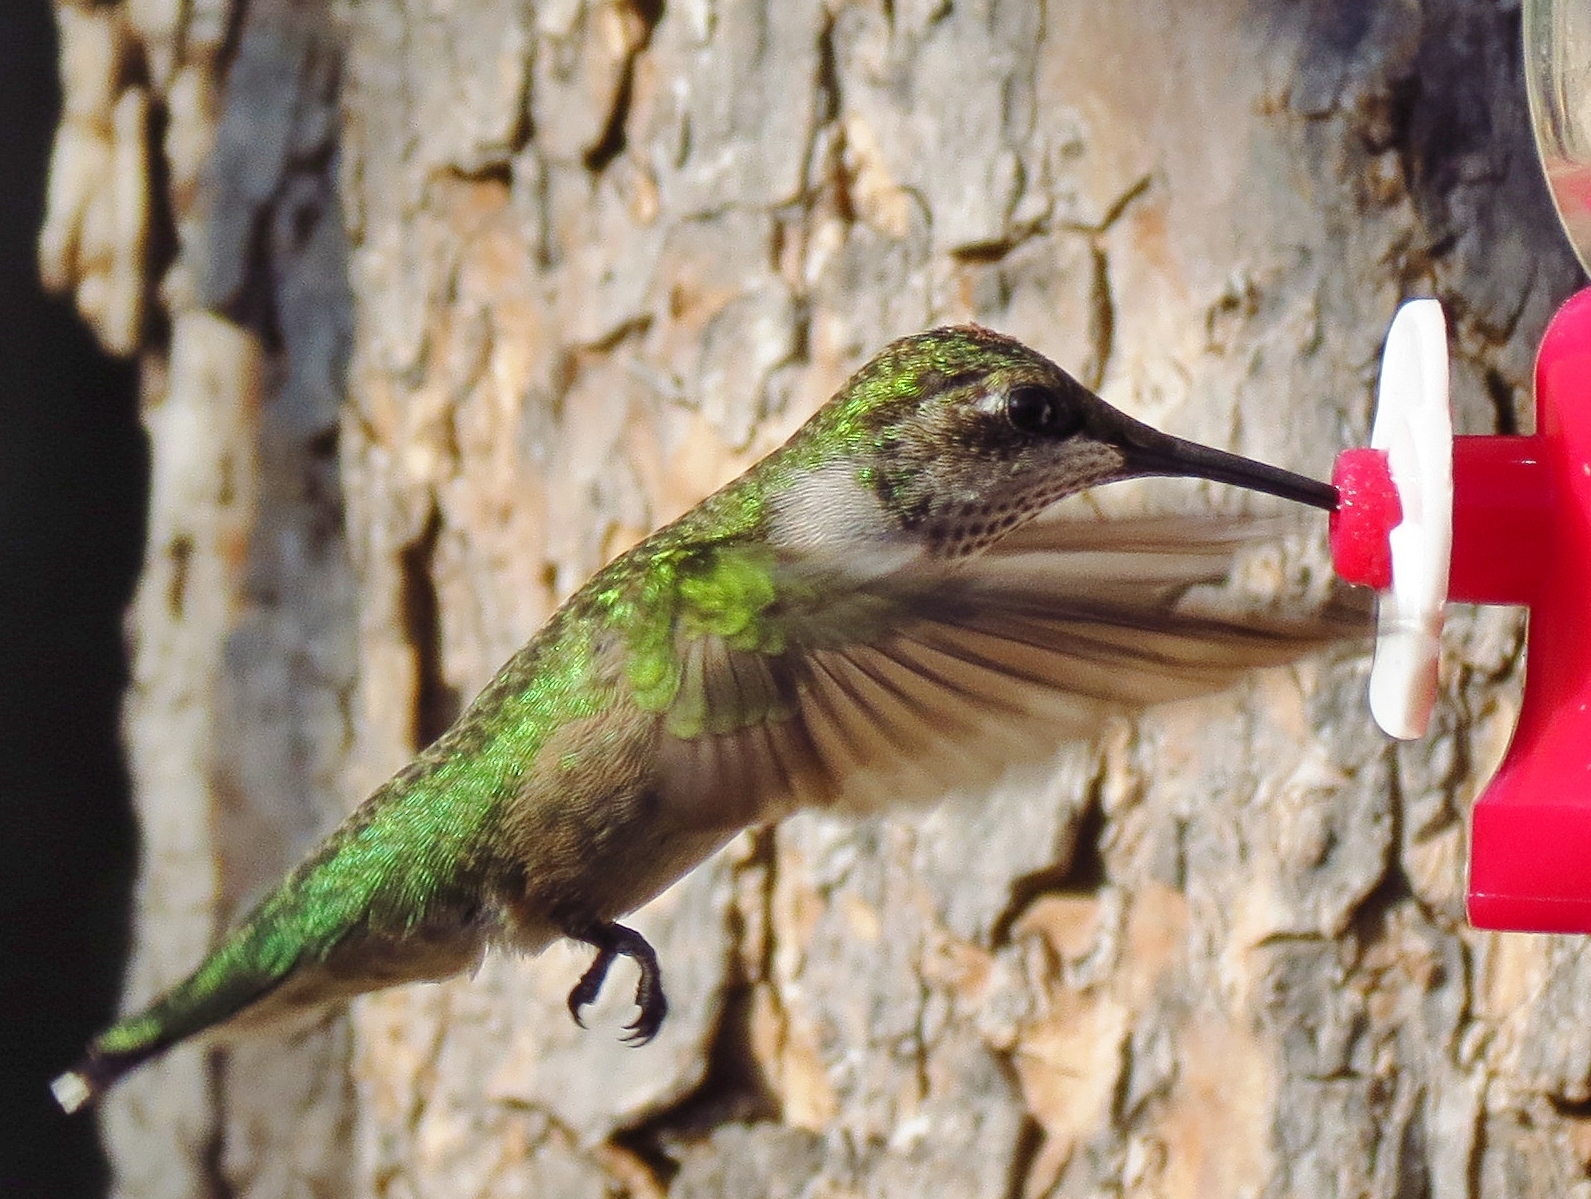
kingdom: Animalia
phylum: Chordata
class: Aves
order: Apodiformes
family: Trochilidae
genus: Archilochus
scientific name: Archilochus colubris
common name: Ruby-throated hummingbird
